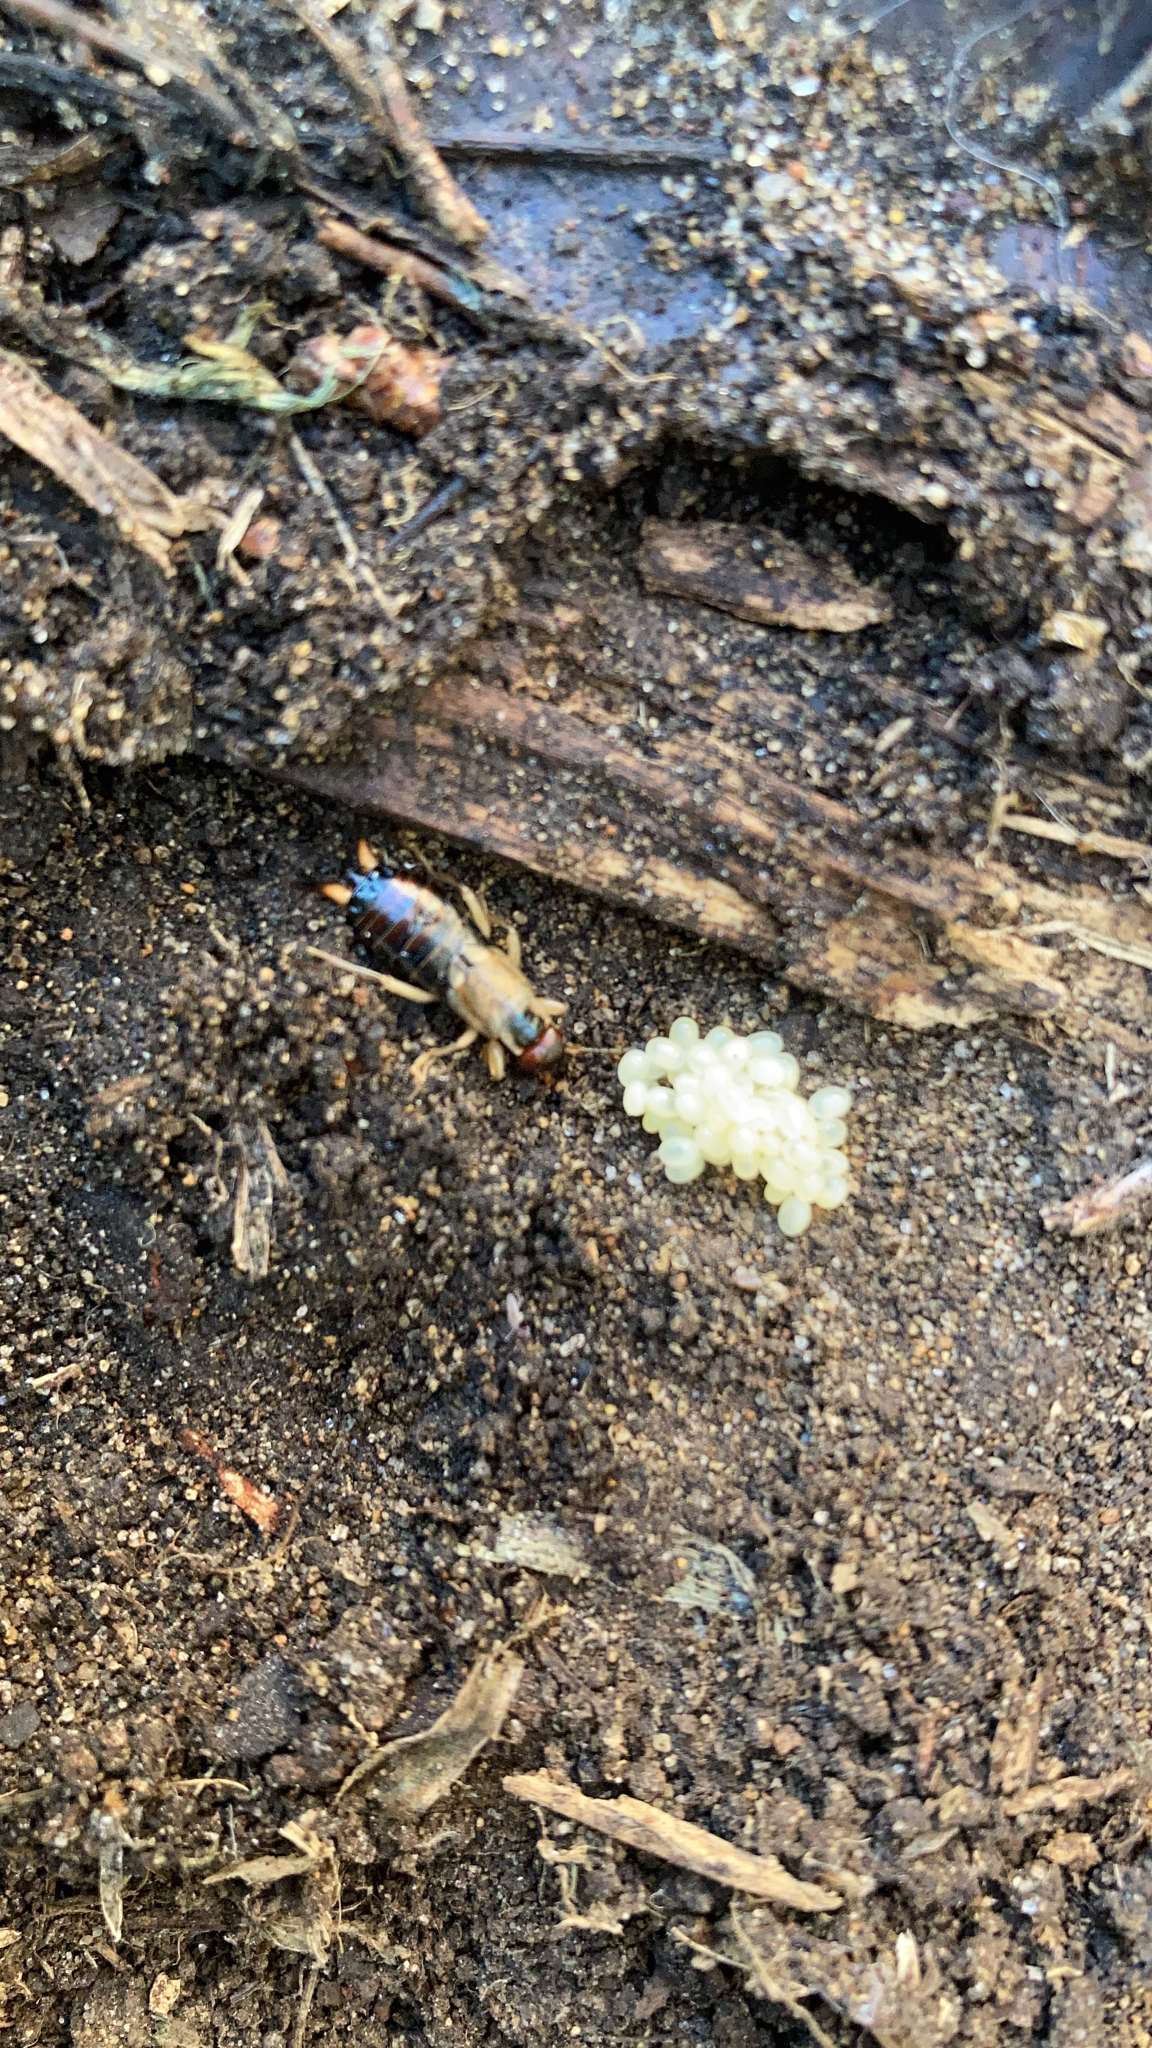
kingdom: Animalia
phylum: Arthropoda
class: Insecta
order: Dermaptera
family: Forficulidae
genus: Forficula
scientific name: Forficula
